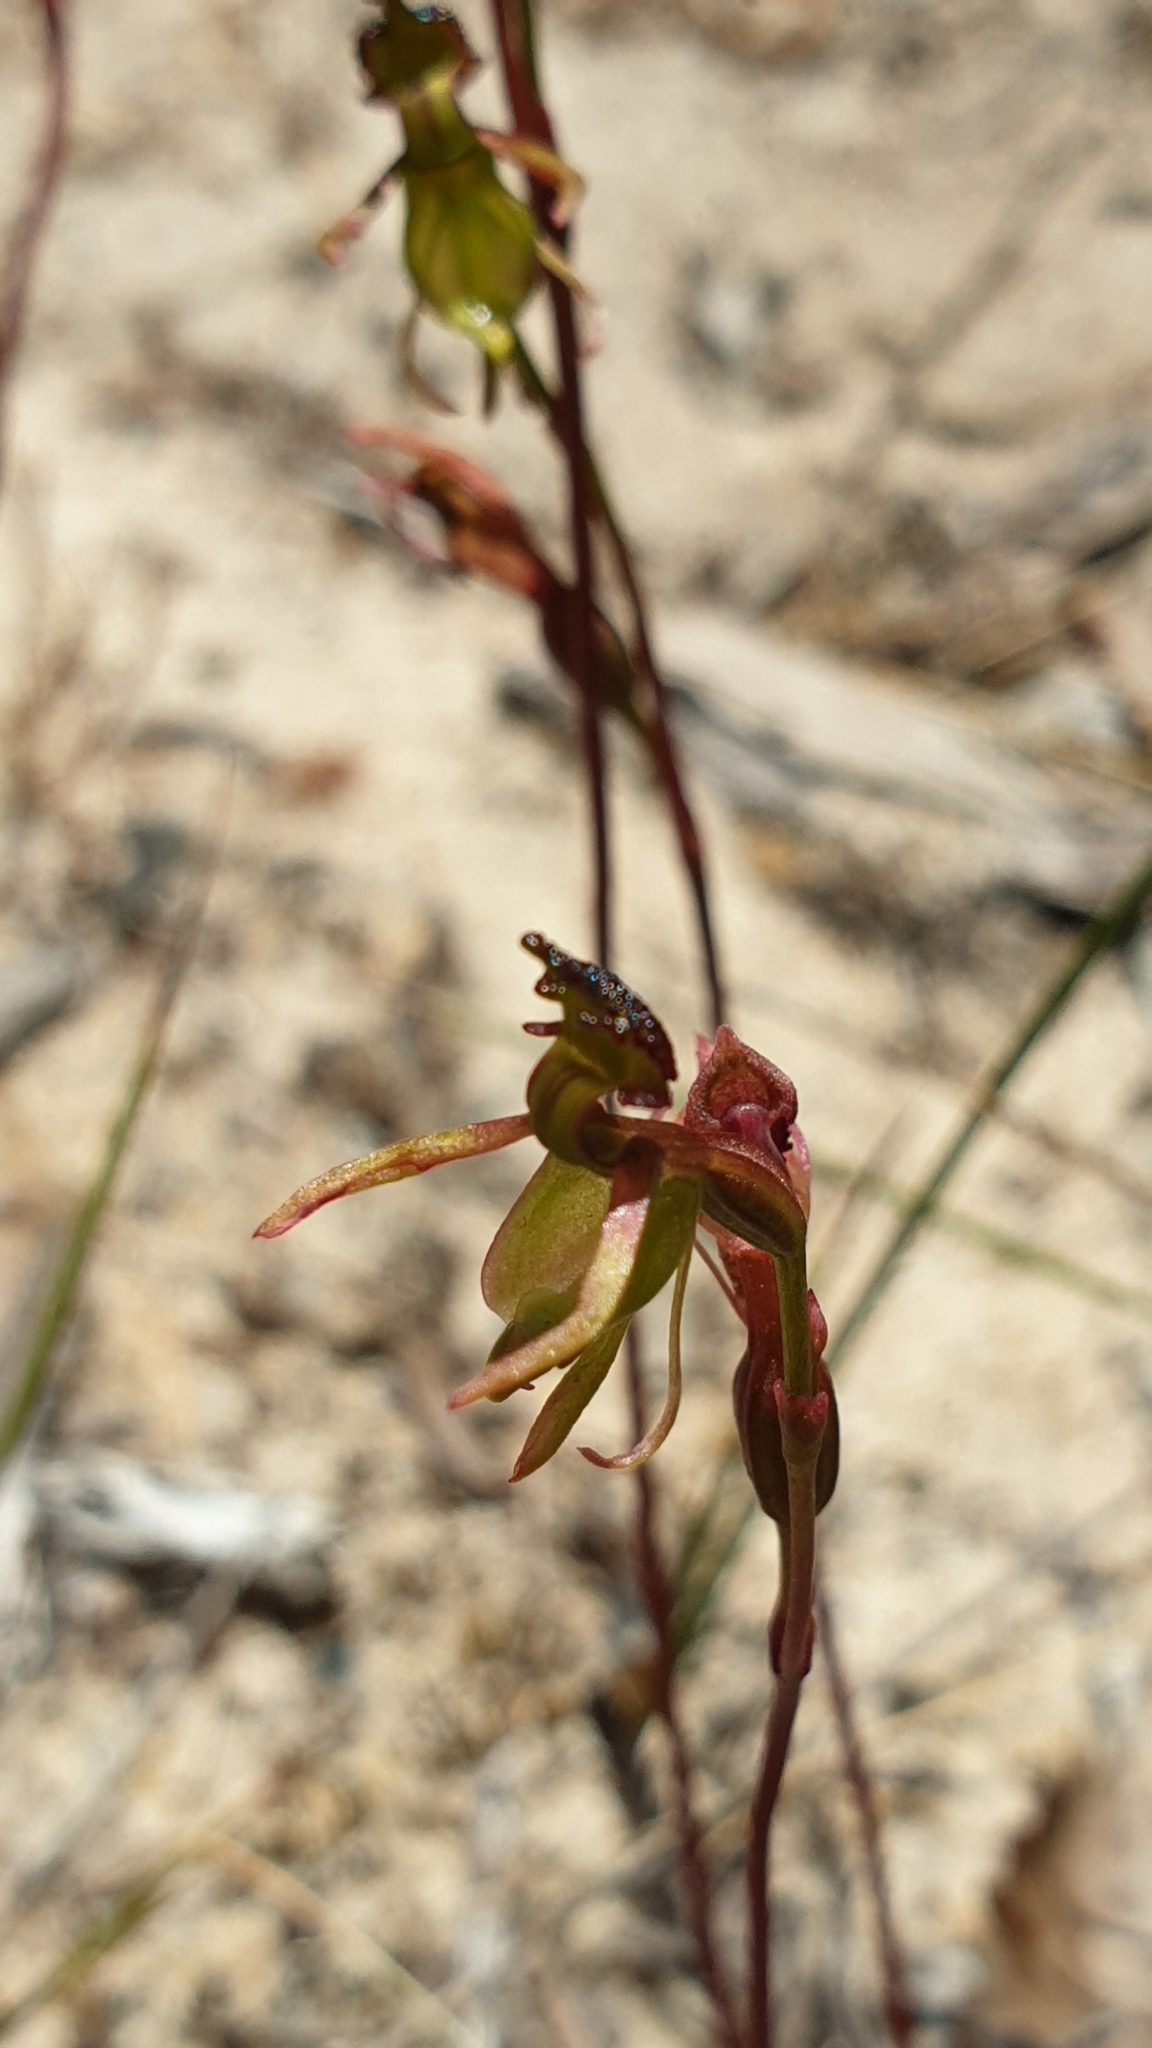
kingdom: Plantae
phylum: Tracheophyta
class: Liliopsida
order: Asparagales
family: Orchidaceae
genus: Caleana
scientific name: Caleana minor
